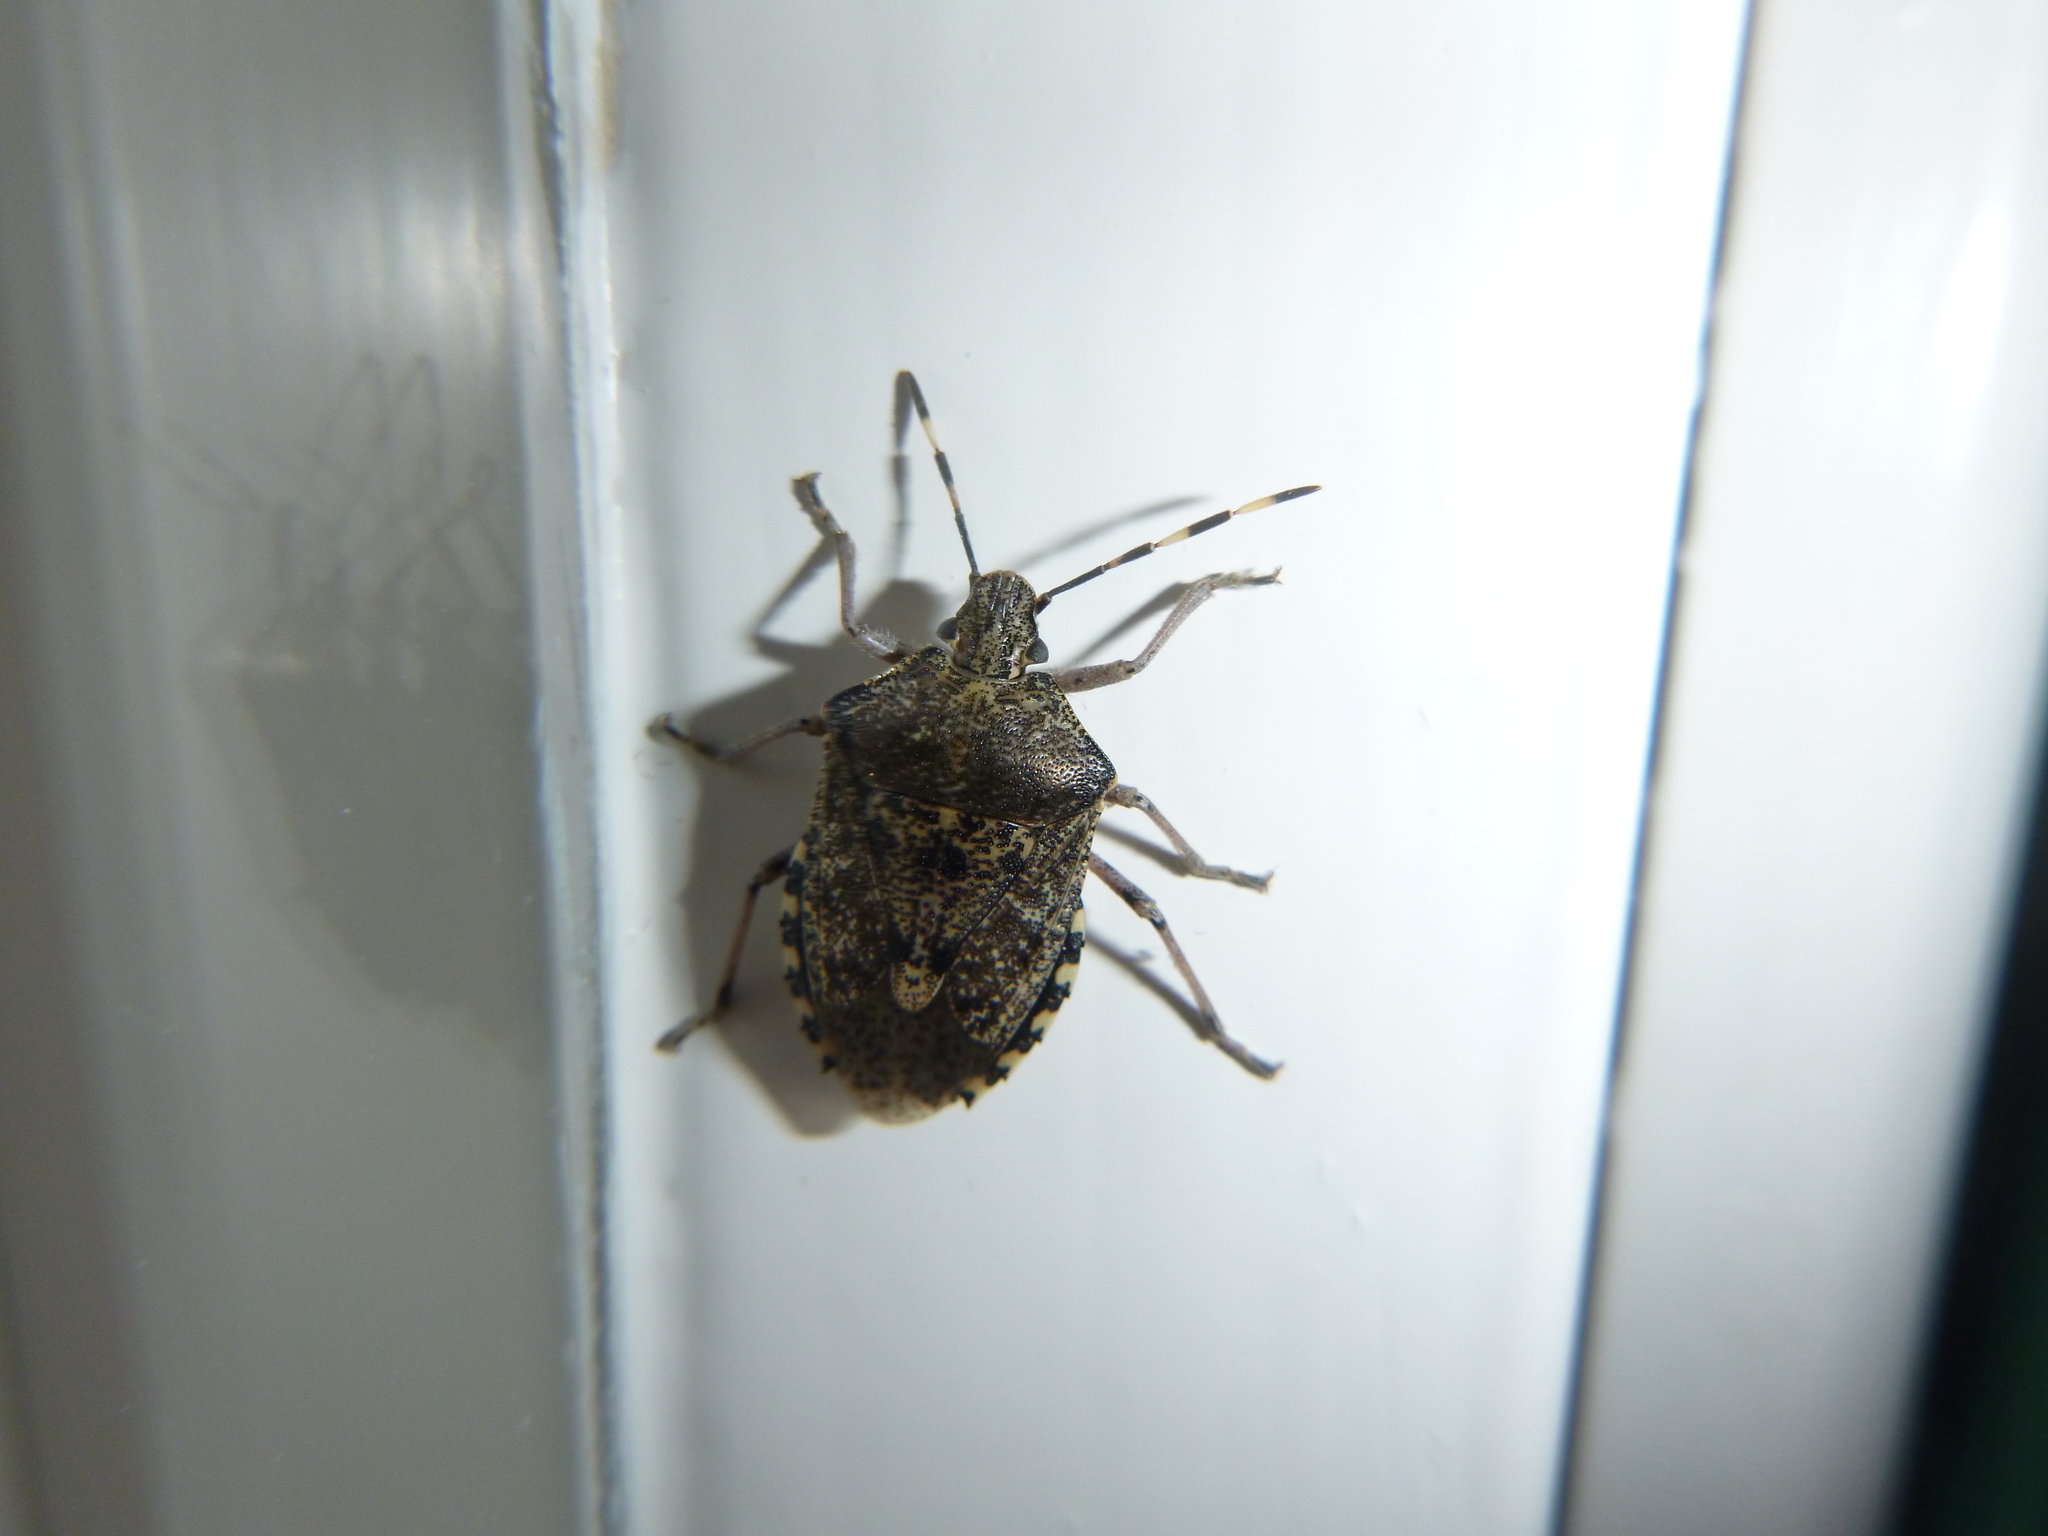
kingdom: Animalia
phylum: Arthropoda
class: Insecta
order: Hemiptera
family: Pentatomidae
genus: Rhaphigaster
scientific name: Rhaphigaster nebulosa
